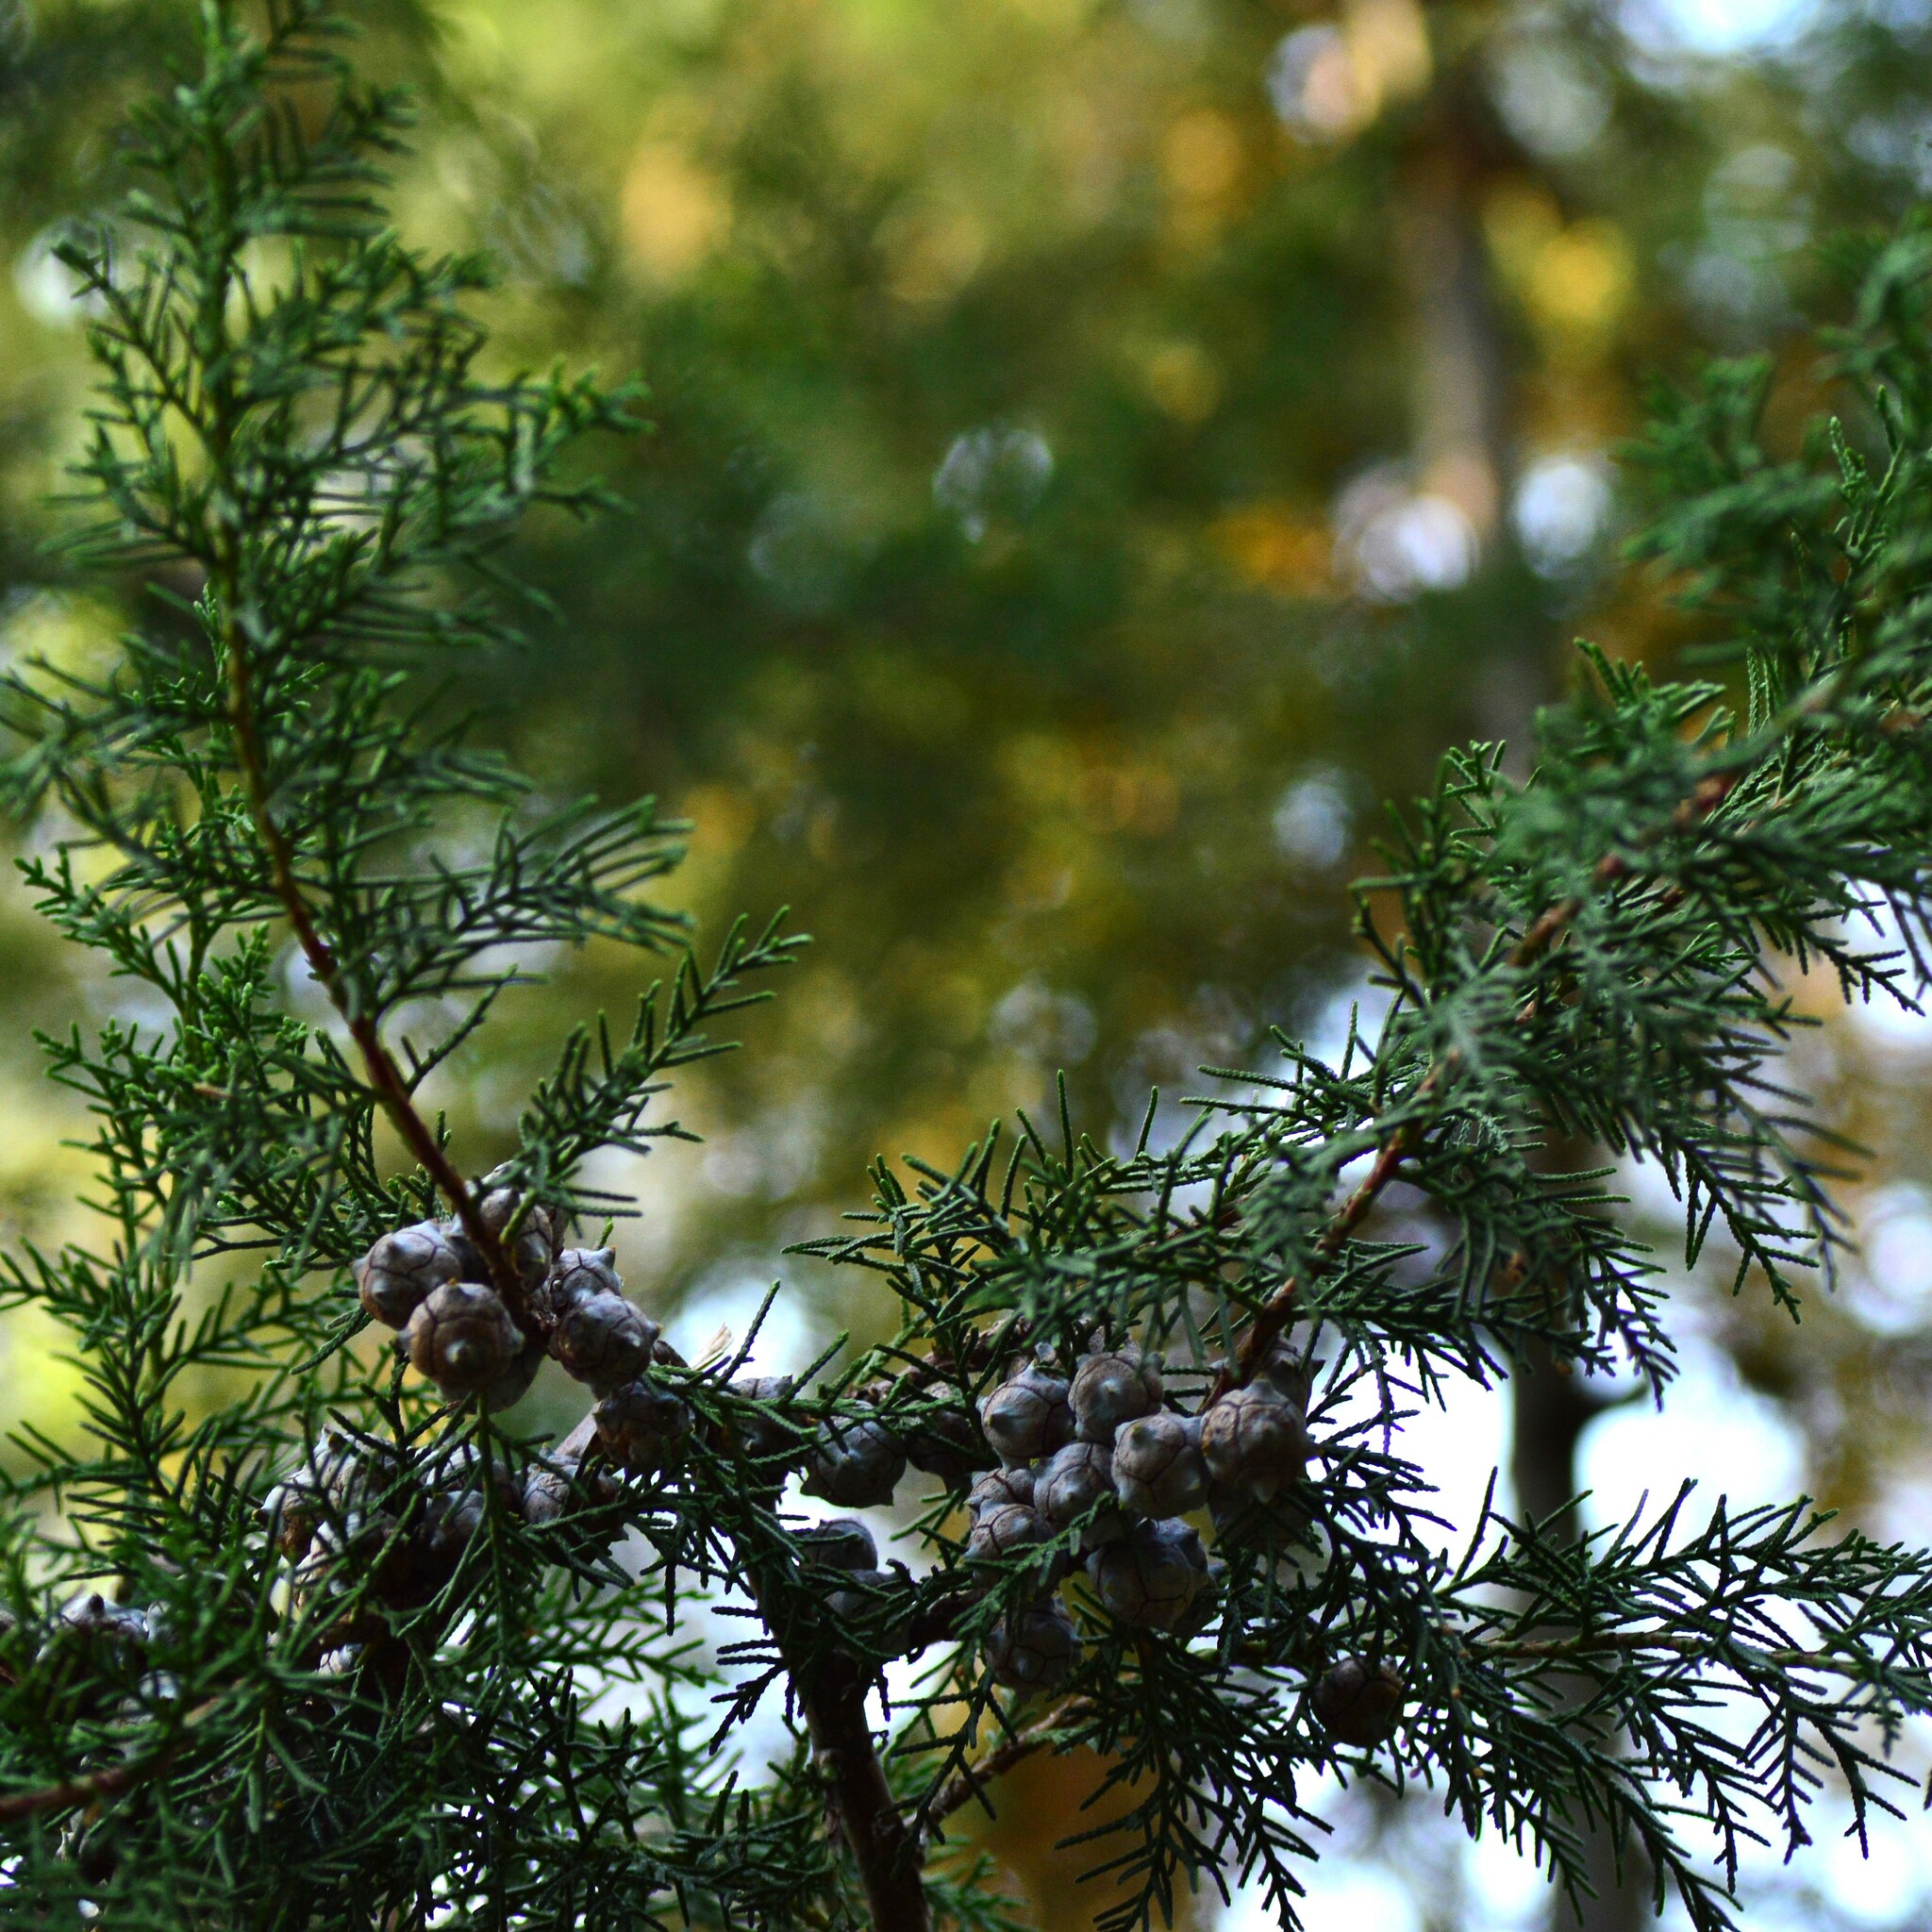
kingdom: Plantae
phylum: Tracheophyta
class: Pinopsida
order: Pinales
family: Cupressaceae
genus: Cupressus
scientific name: Cupressus torulosa
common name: Himalayan cypress
